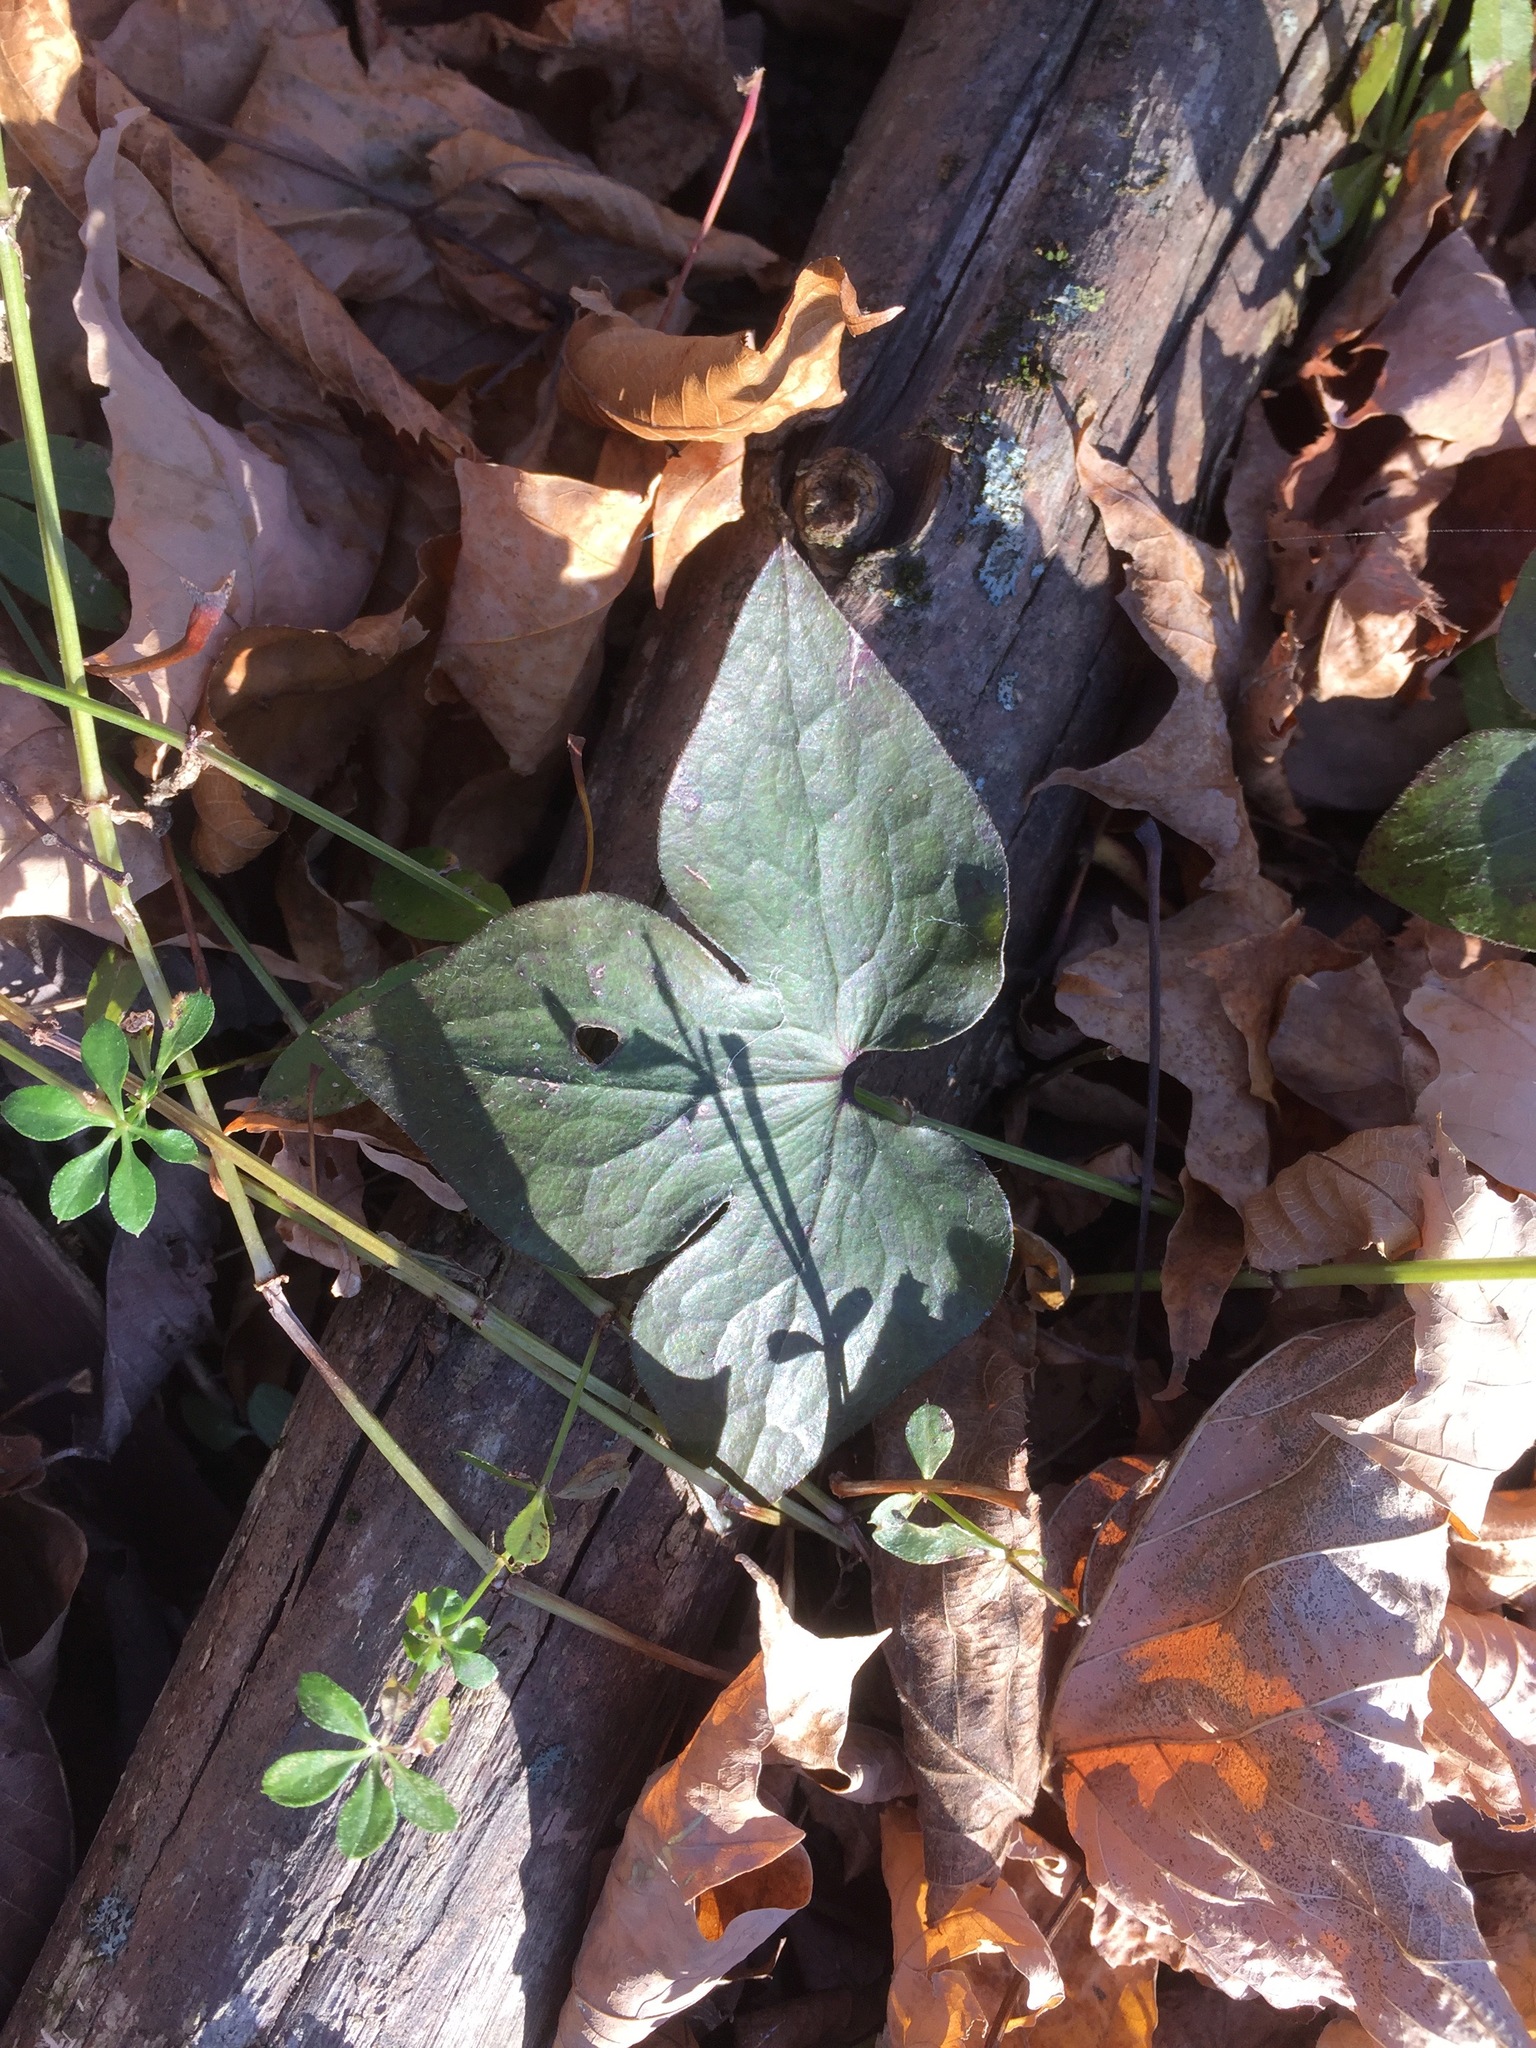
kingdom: Plantae
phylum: Tracheophyta
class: Magnoliopsida
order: Ranunculales
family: Ranunculaceae
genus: Hepatica
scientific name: Hepatica acutiloba
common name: Sharp-lobed hepatica
